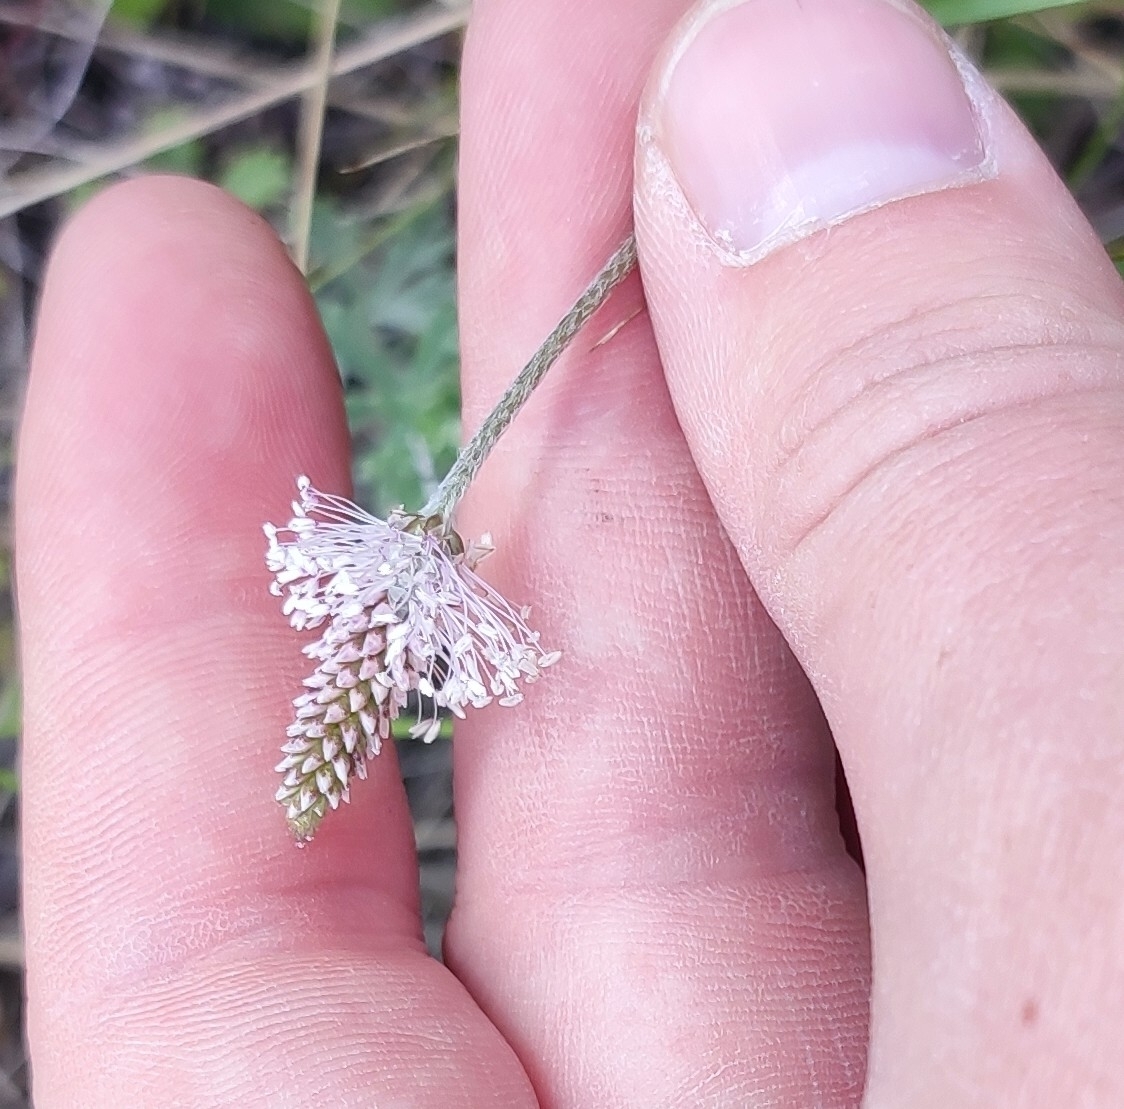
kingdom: Plantae
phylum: Tracheophyta
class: Magnoliopsida
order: Lamiales
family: Plantaginaceae
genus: Plantago
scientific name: Plantago media
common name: Hoary plantain
